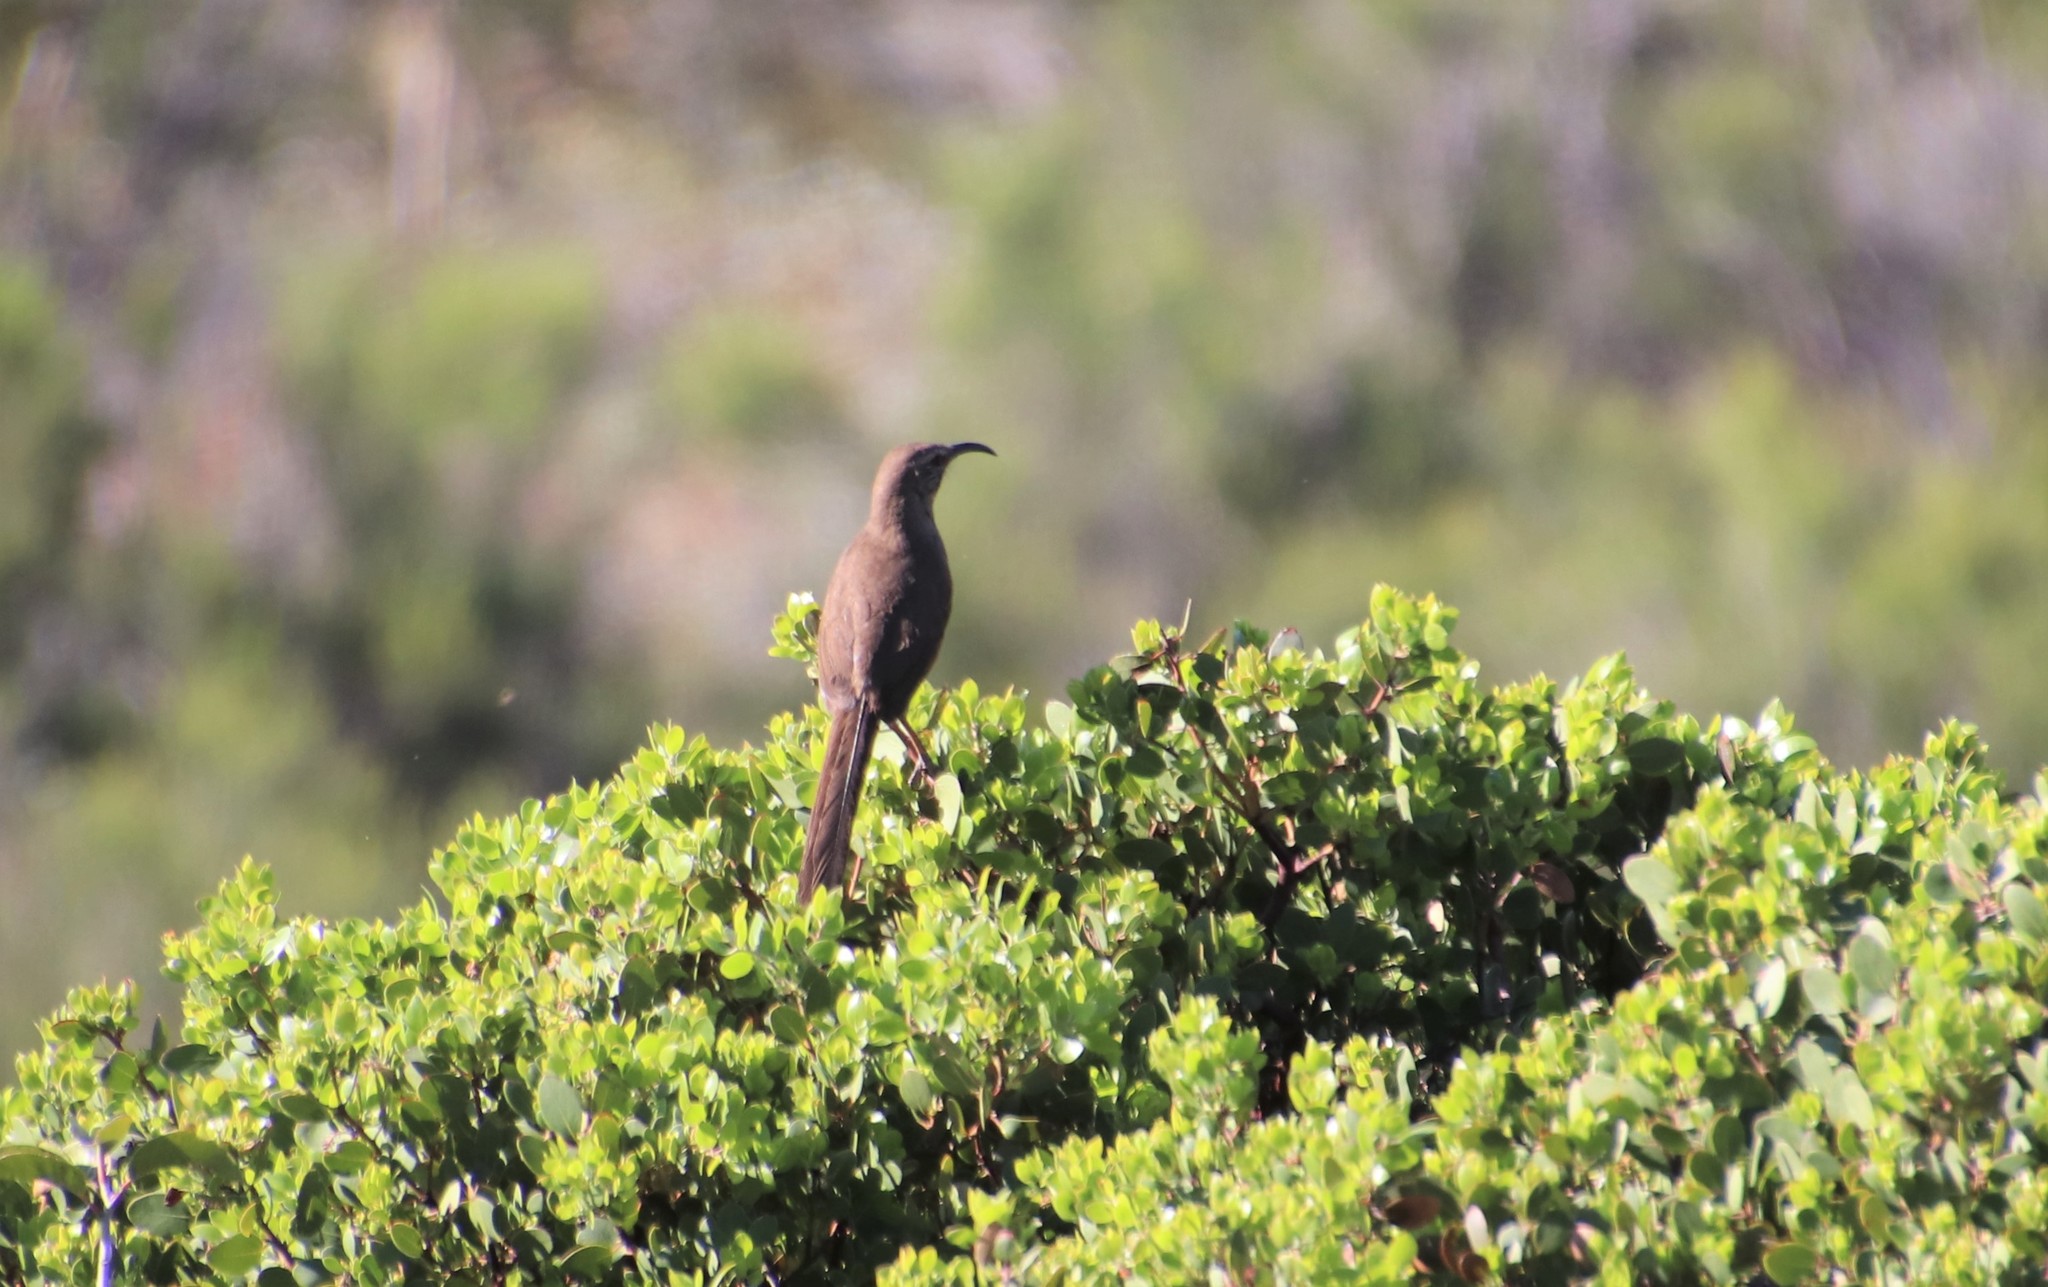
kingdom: Animalia
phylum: Chordata
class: Aves
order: Passeriformes
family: Mimidae
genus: Toxostoma
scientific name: Toxostoma redivivum
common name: California thrasher
